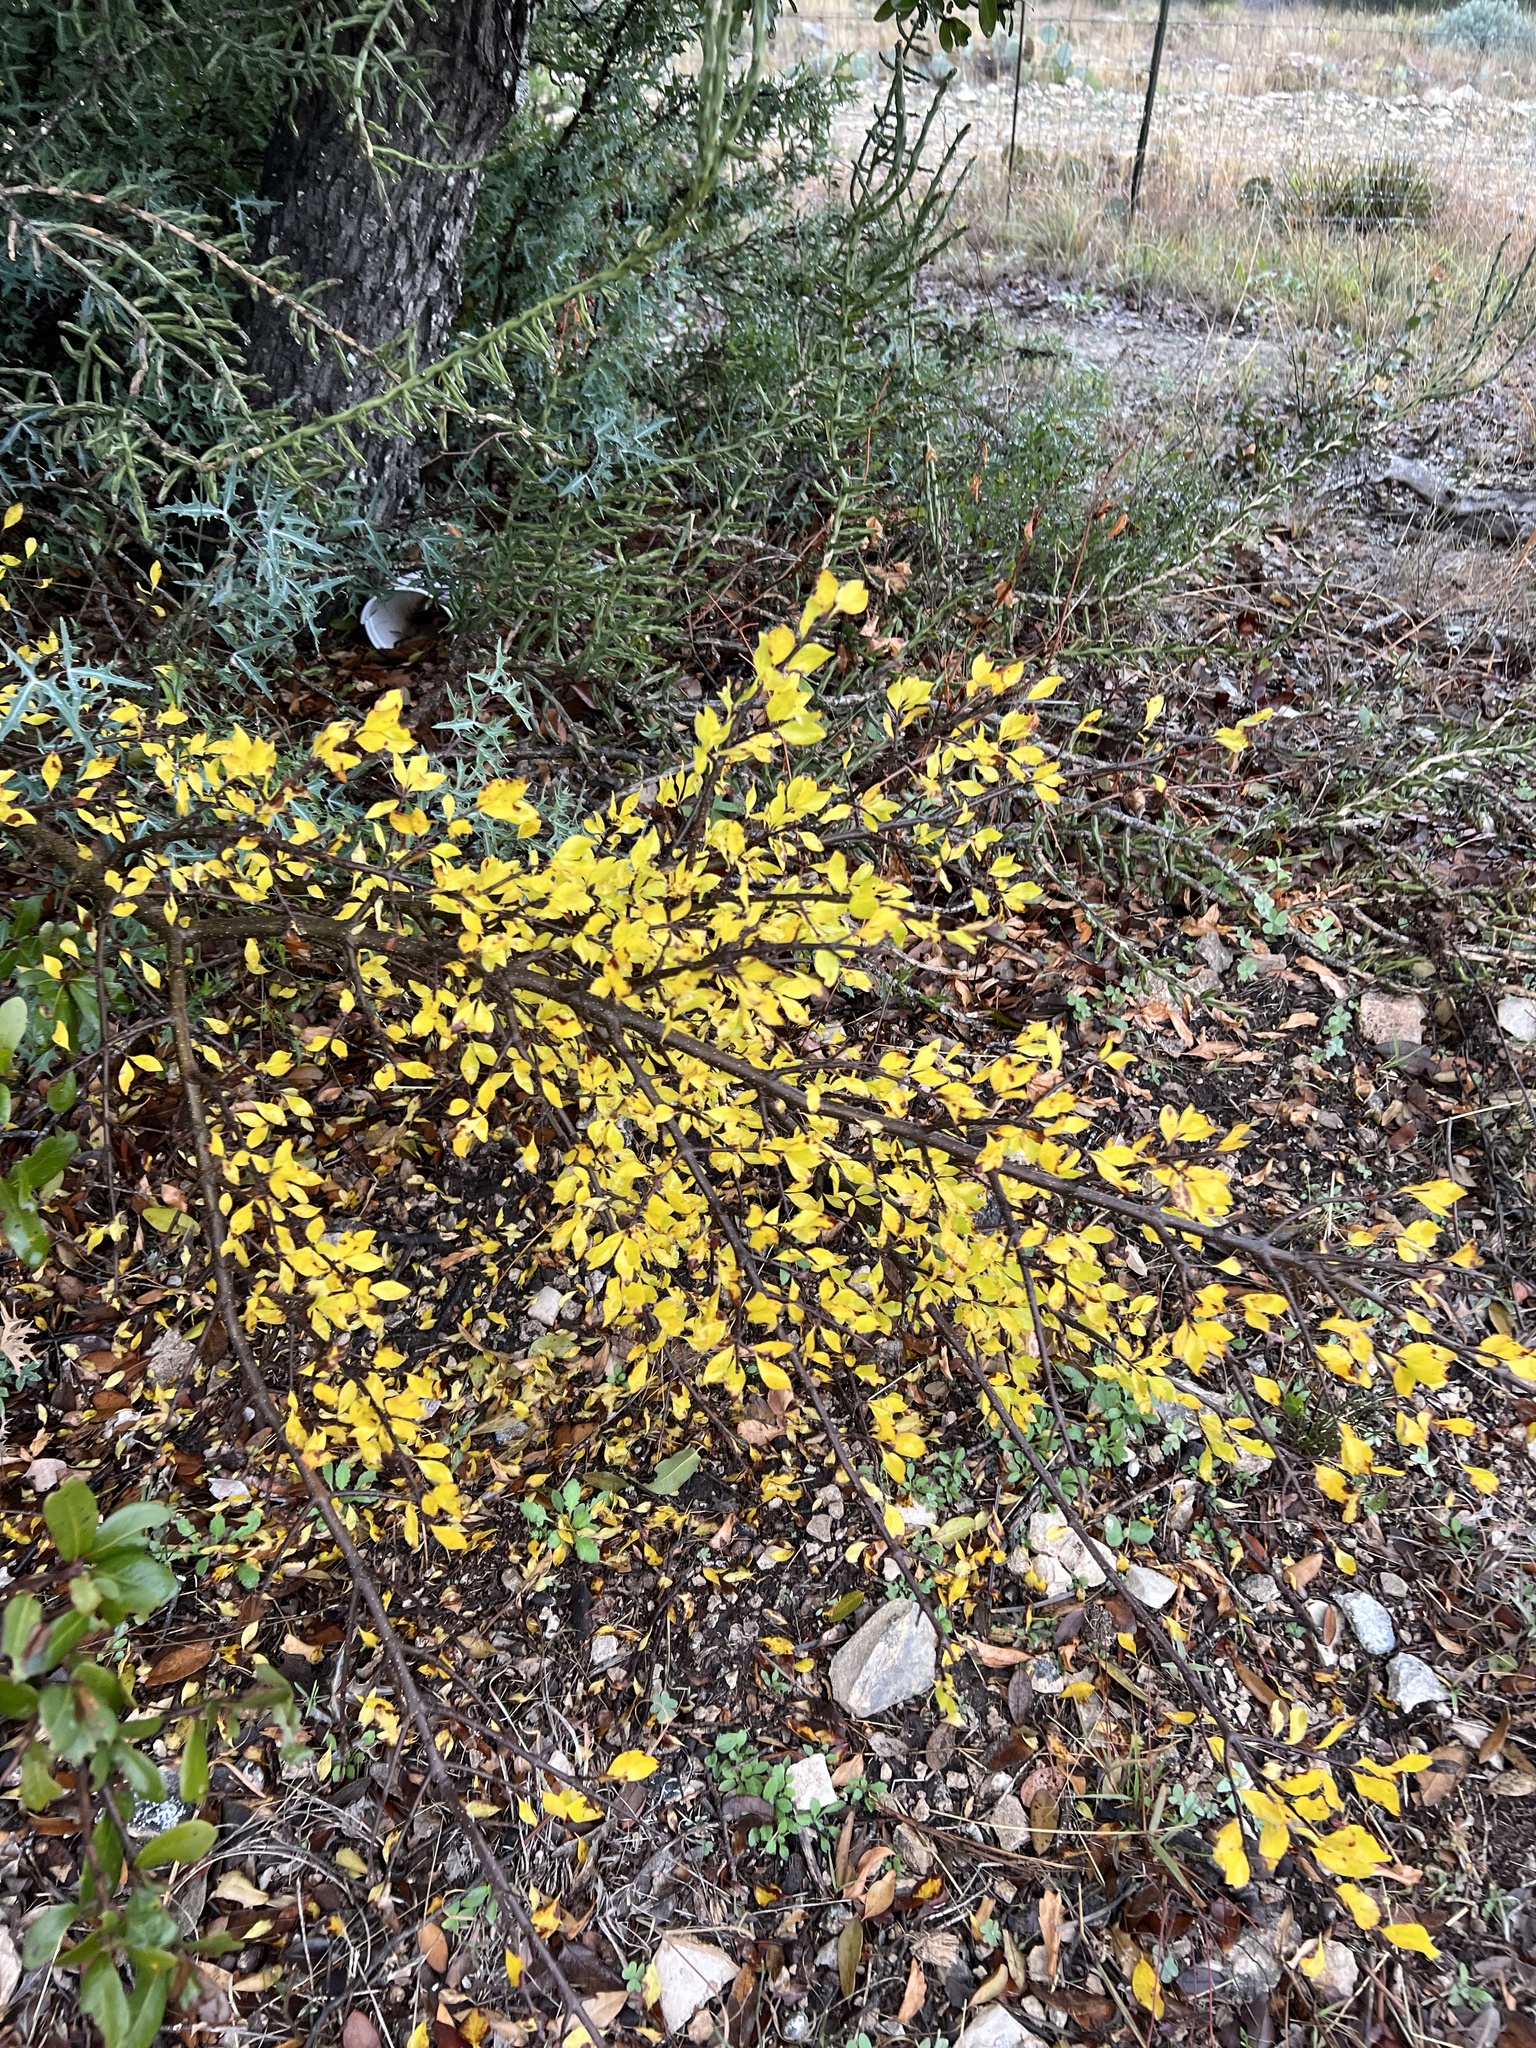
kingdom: Plantae
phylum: Tracheophyta
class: Magnoliopsida
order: Lamiales
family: Oleaceae
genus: Forestiera
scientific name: Forestiera pubescens
